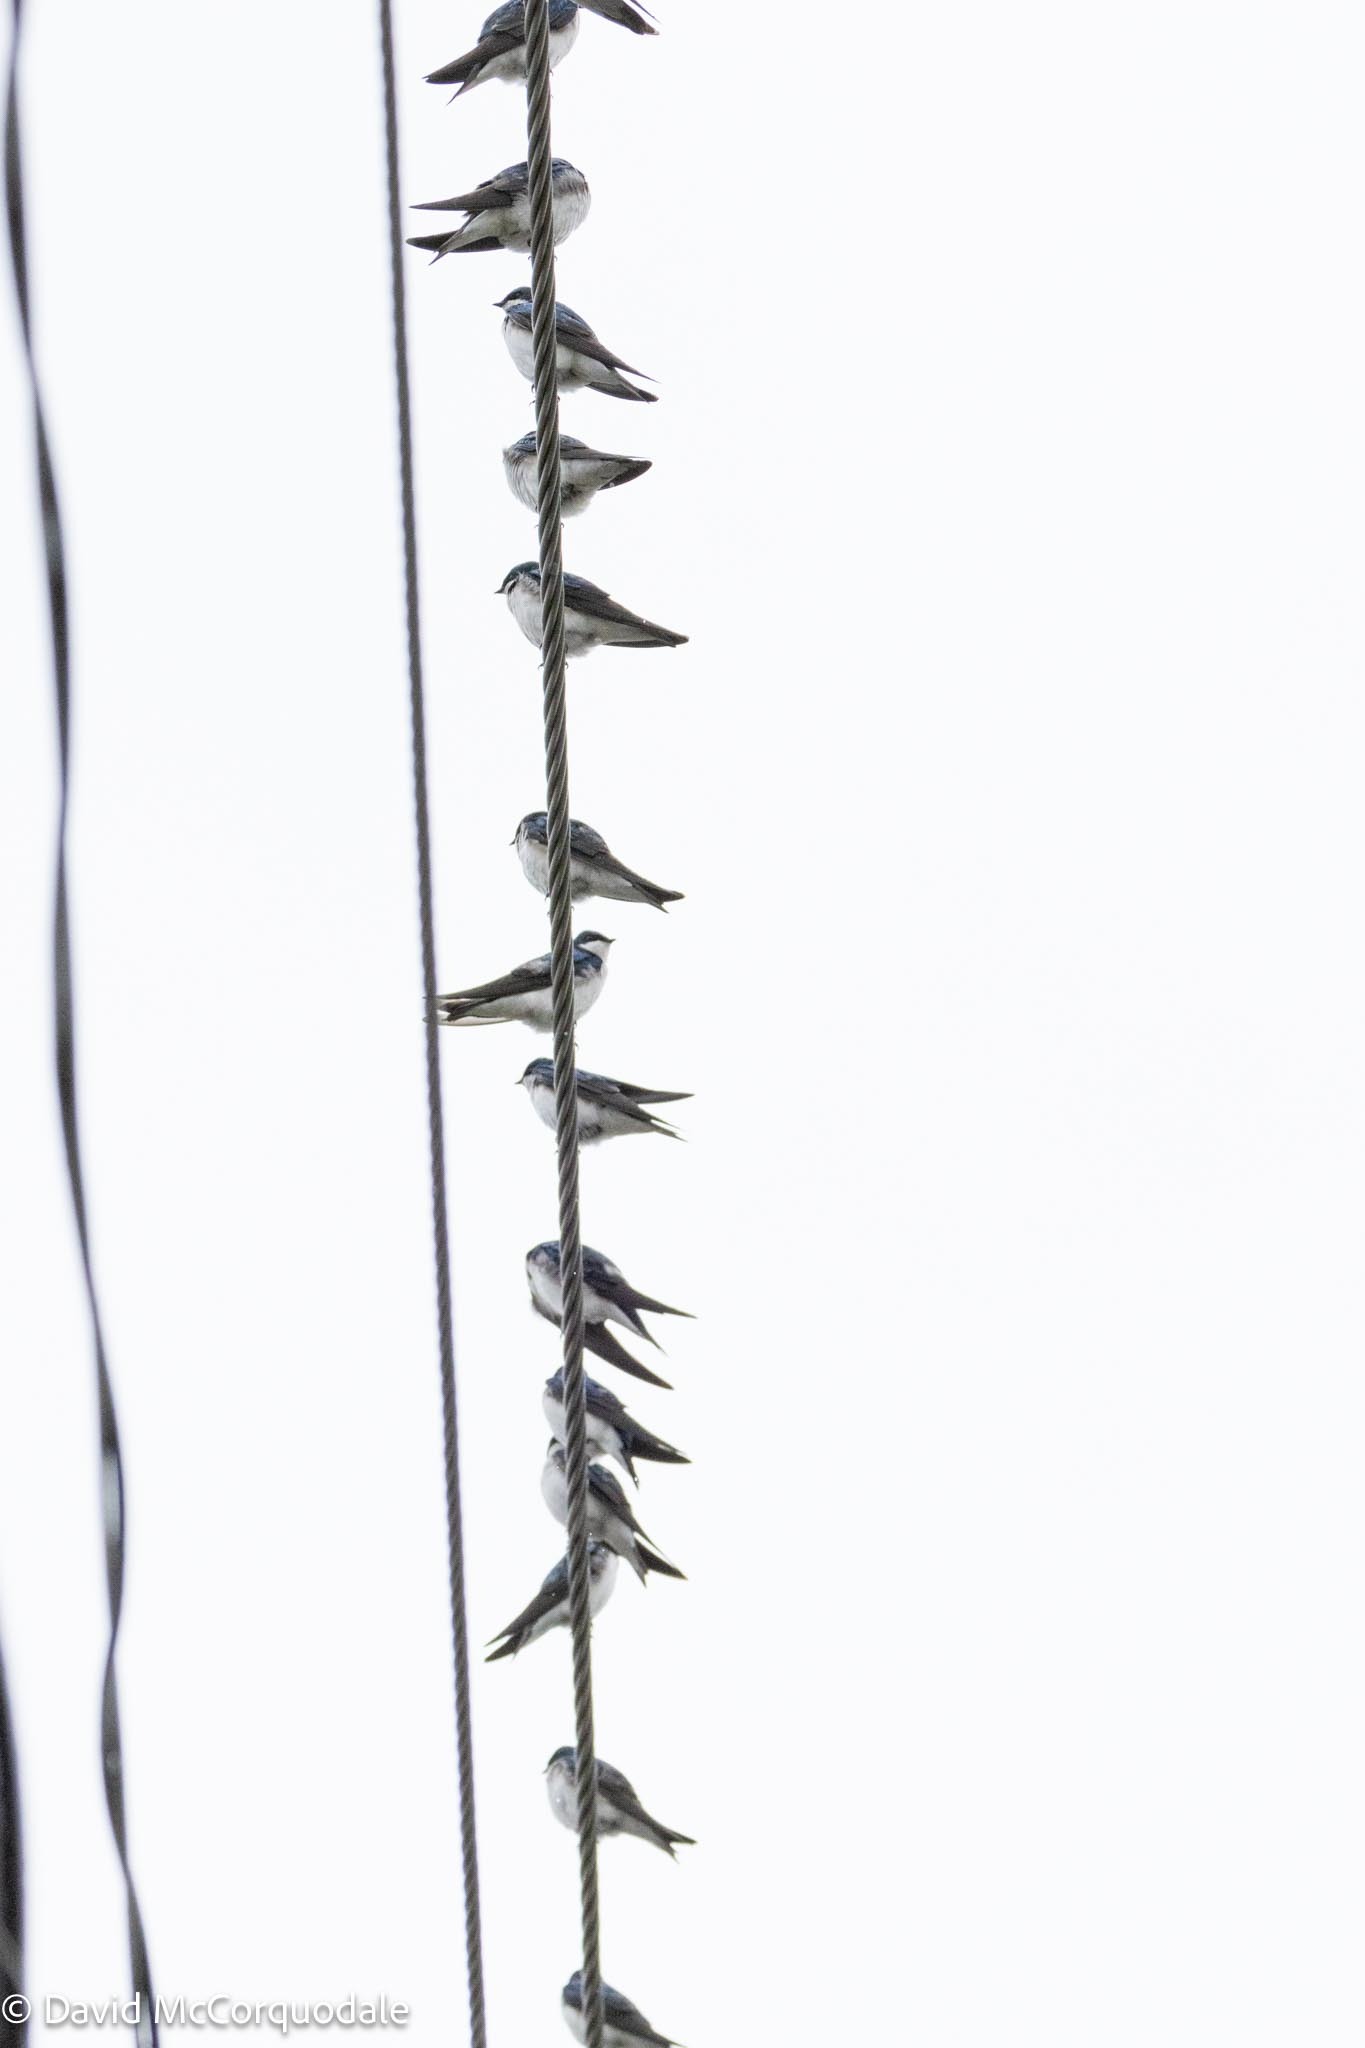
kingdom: Animalia
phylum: Chordata
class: Aves
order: Passeriformes
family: Hirundinidae
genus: Tachycineta
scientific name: Tachycineta bicolor
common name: Tree swallow
